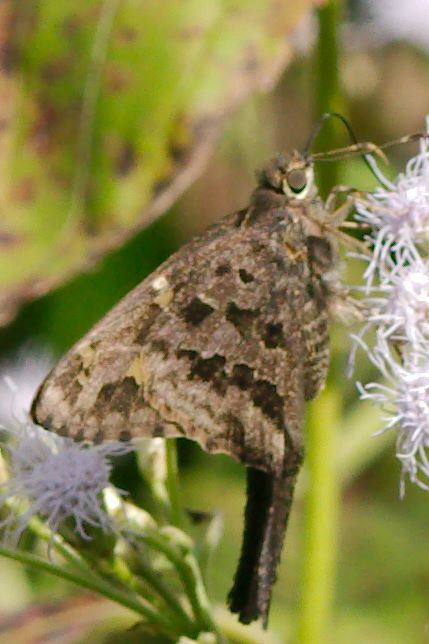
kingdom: Animalia
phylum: Arthropoda
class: Insecta
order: Lepidoptera
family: Hesperiidae
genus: Thorybes
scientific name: Thorybes
